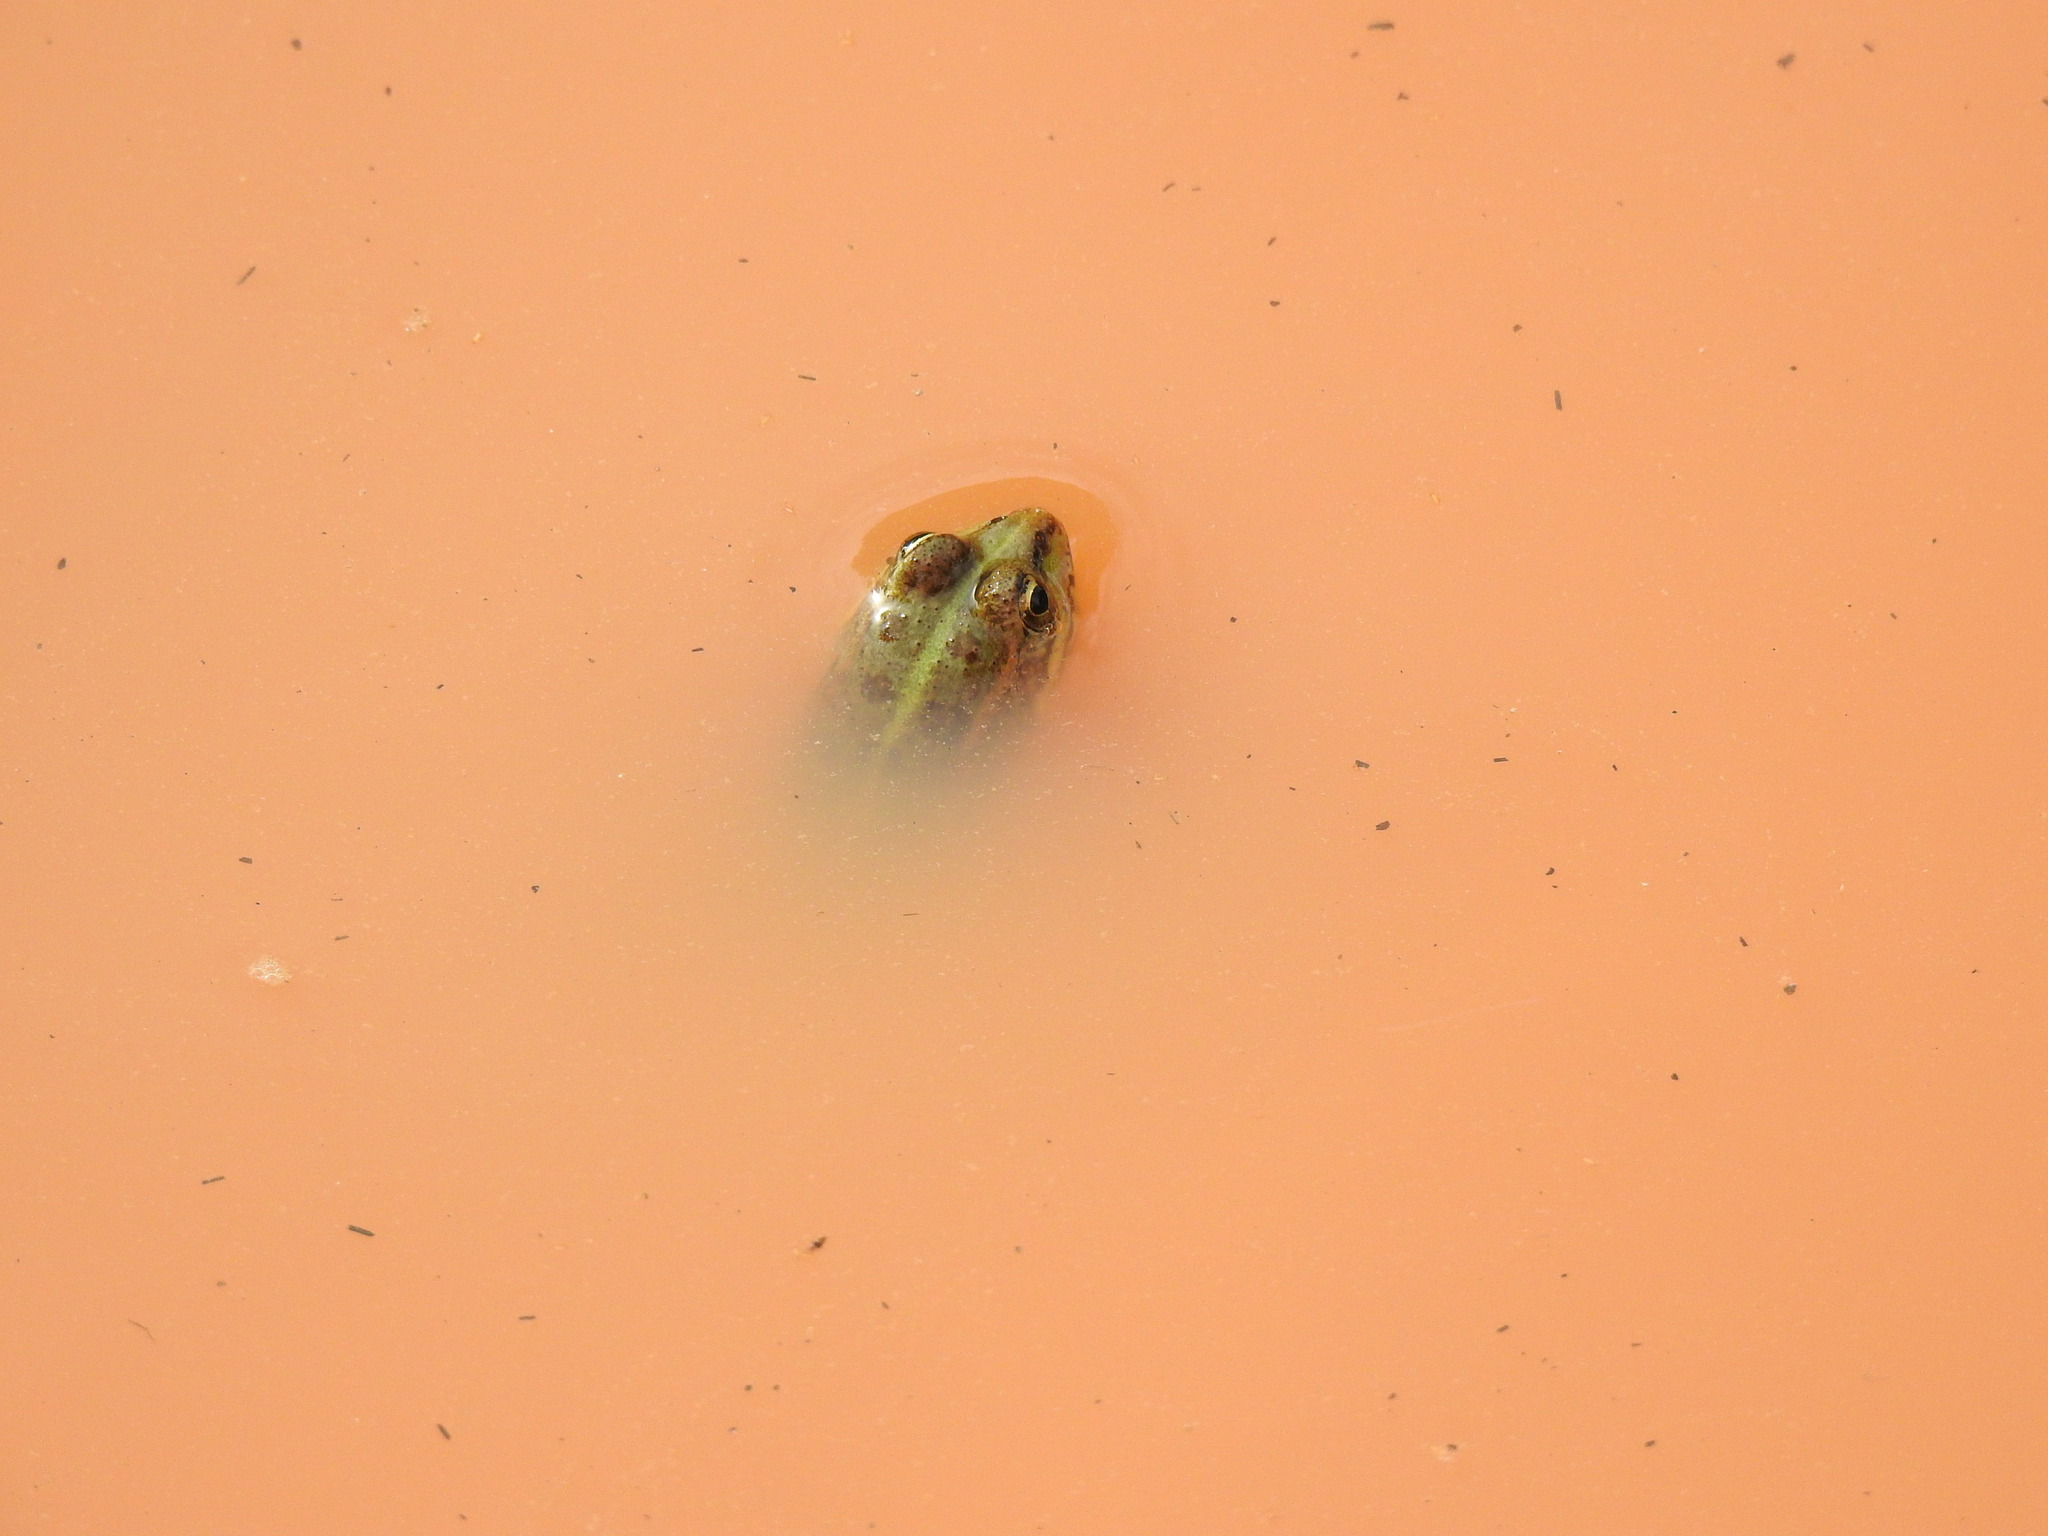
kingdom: Animalia
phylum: Chordata
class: Amphibia
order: Anura
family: Ranidae
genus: Pelophylax
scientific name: Pelophylax perezi
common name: Perez's frog
